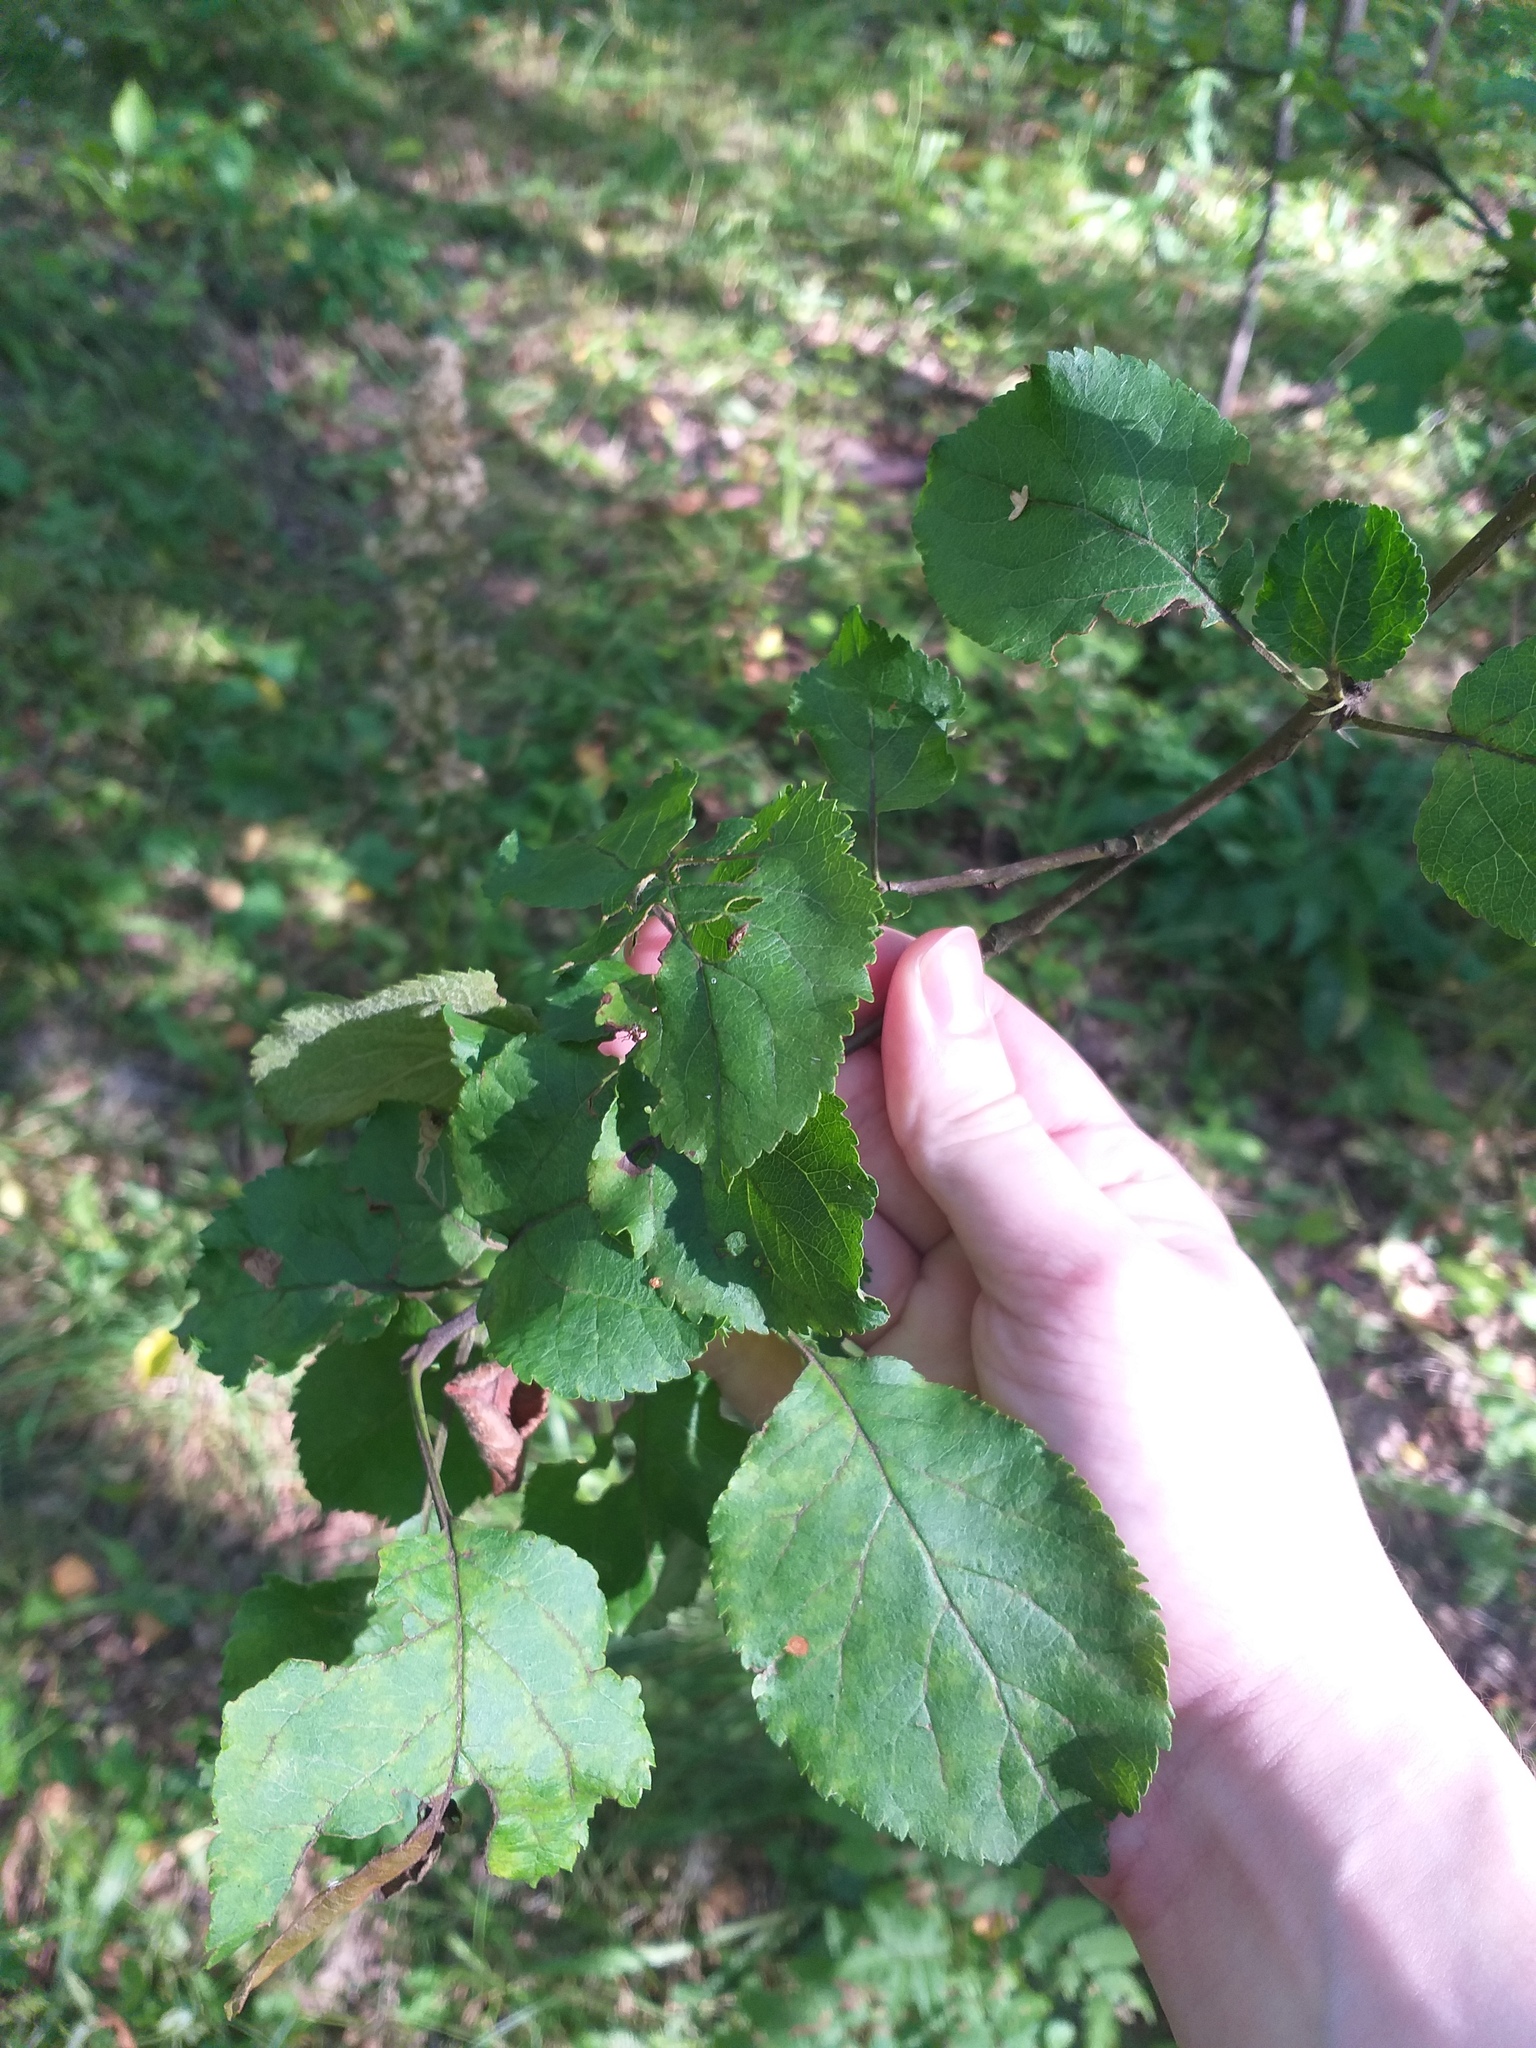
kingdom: Plantae
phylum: Tracheophyta
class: Magnoliopsida
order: Rosales
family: Rosaceae
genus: Malus
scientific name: Malus domestica
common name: Apple
